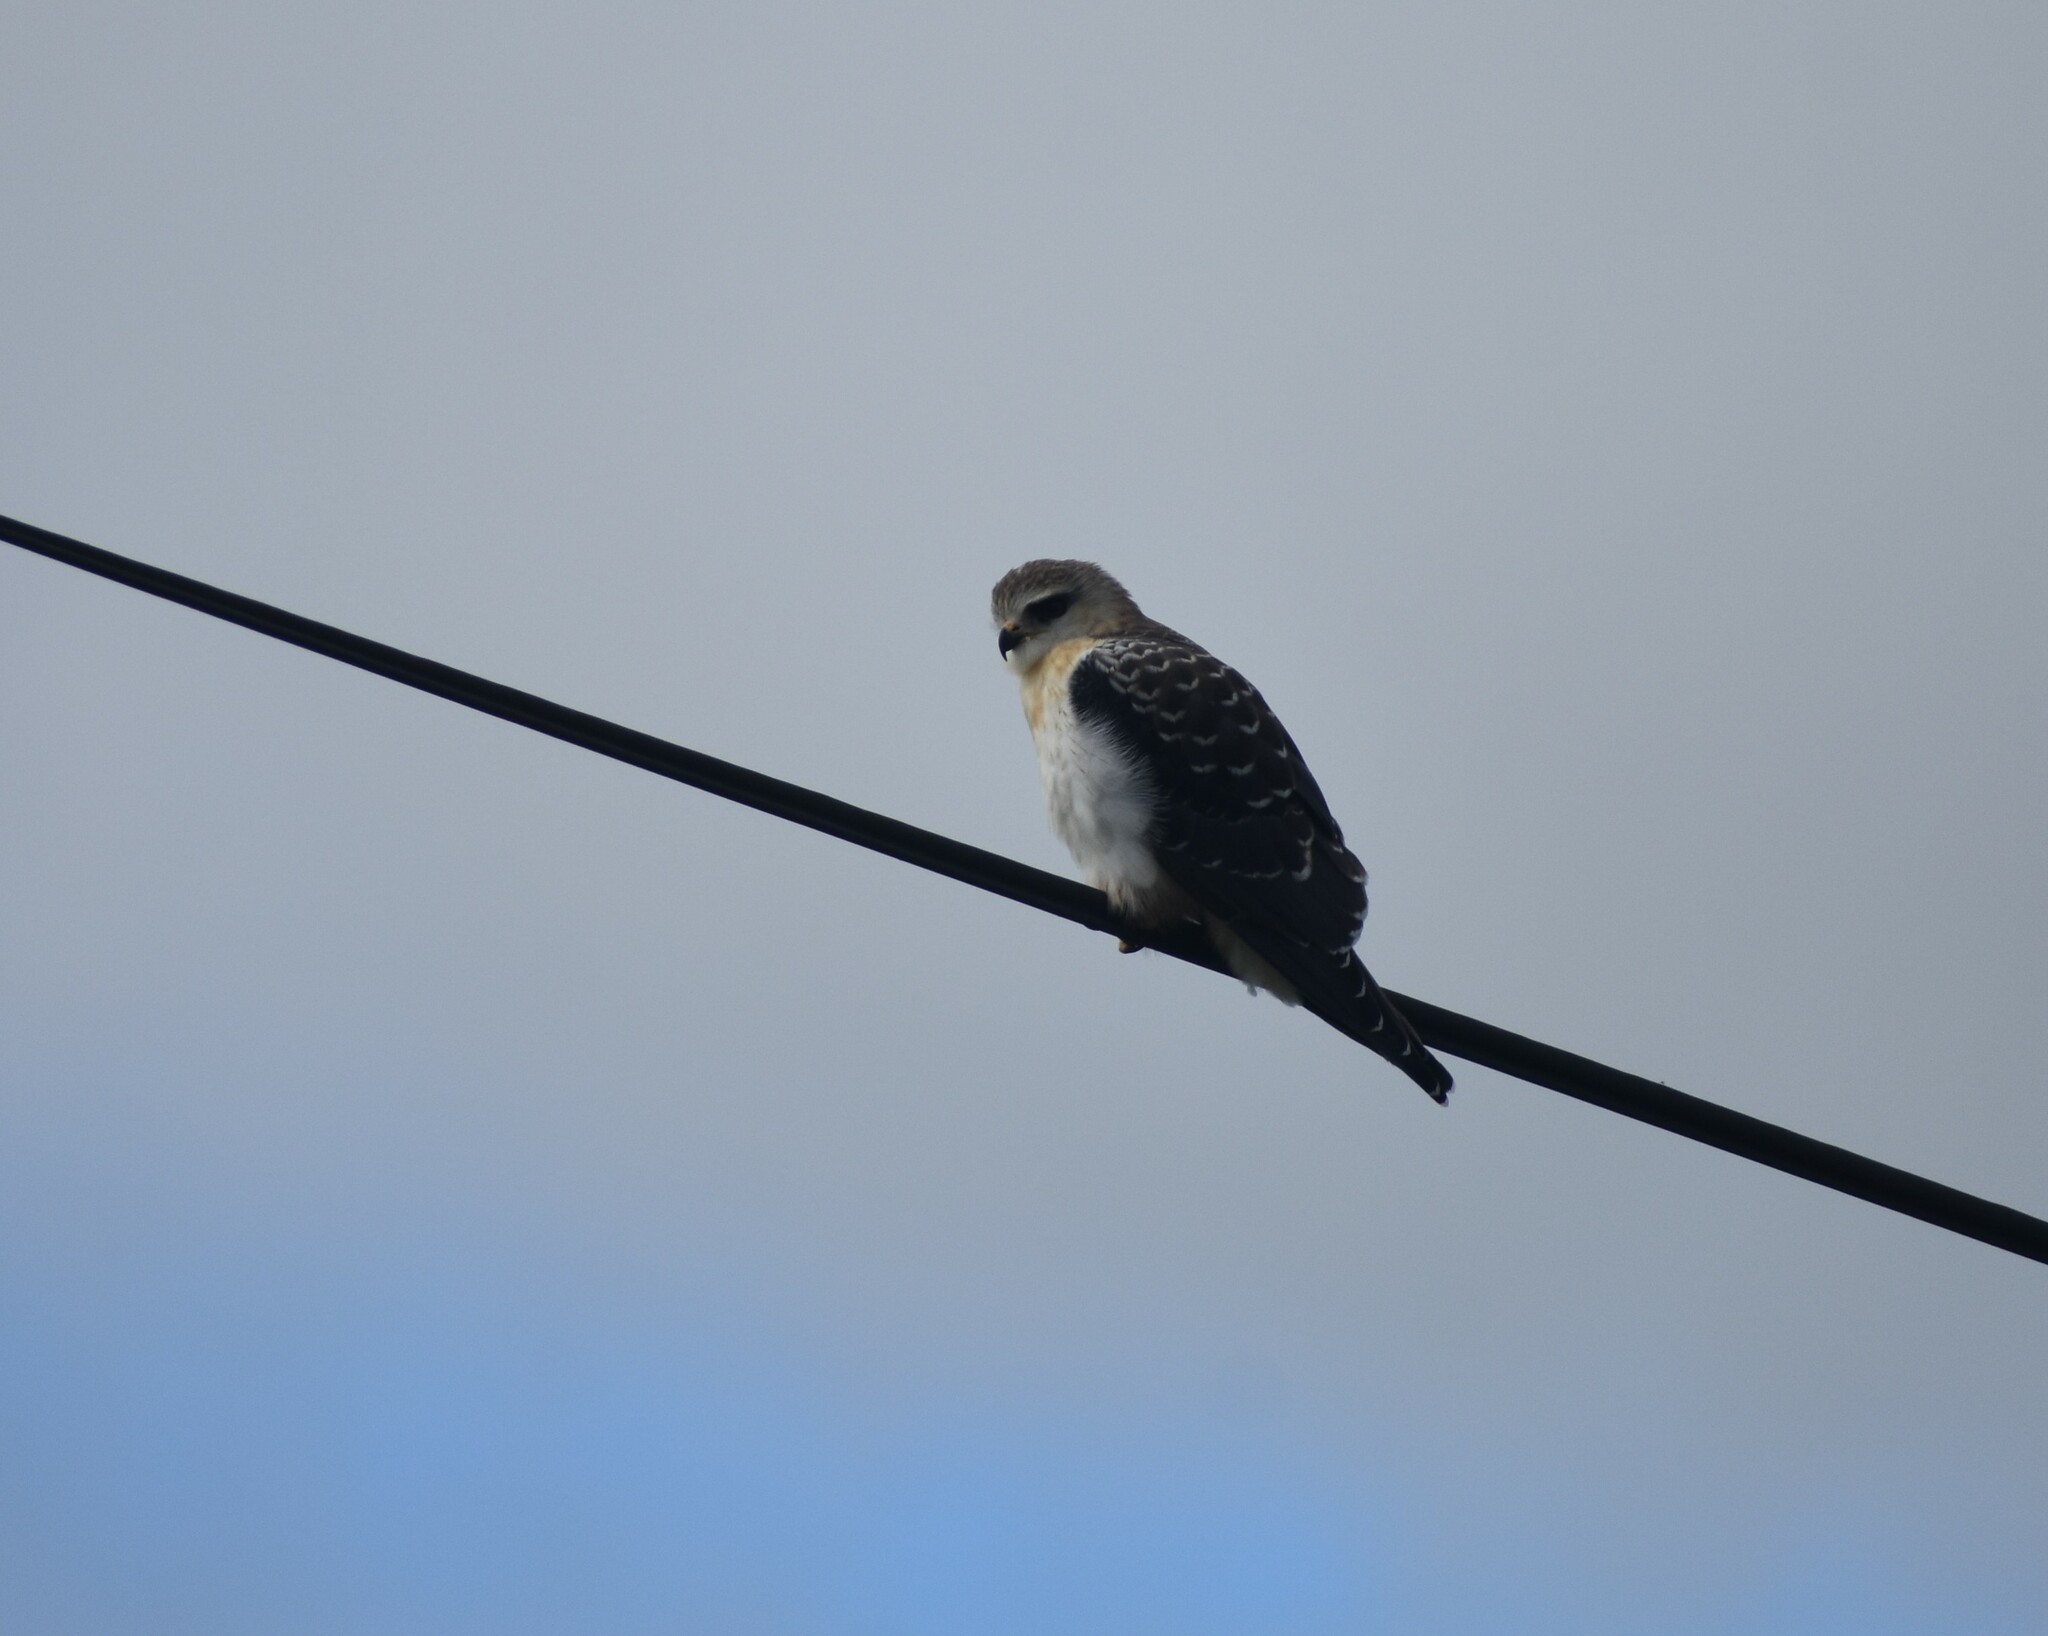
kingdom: Animalia
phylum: Chordata
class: Aves
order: Accipitriformes
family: Accipitridae
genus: Elanus
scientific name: Elanus caeruleus
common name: Black-winged kite
